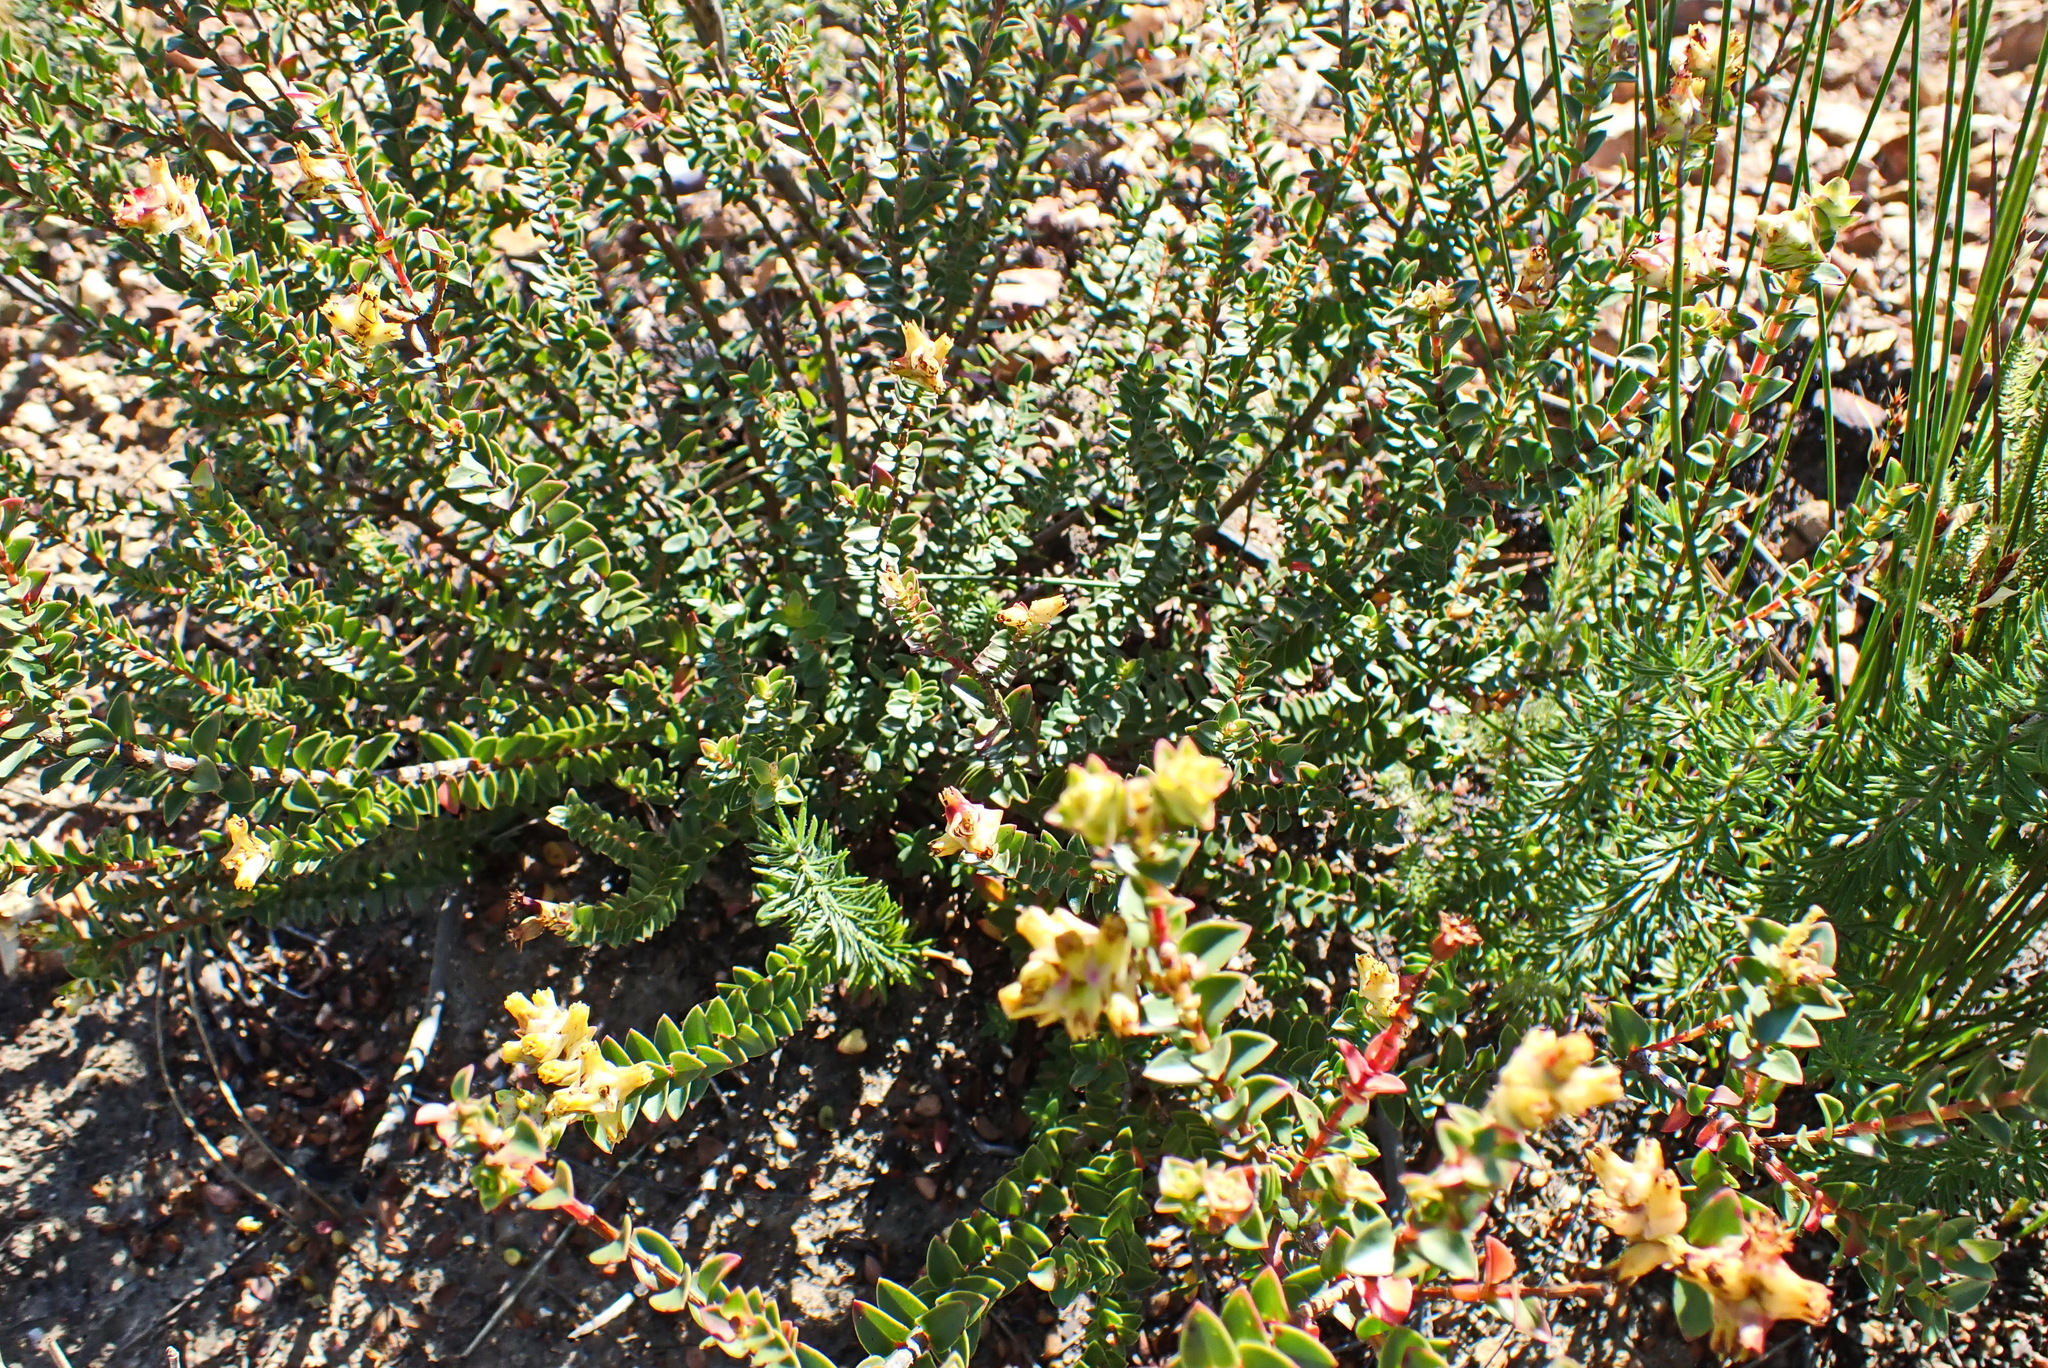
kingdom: Plantae
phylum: Tracheophyta
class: Magnoliopsida
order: Myrtales
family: Penaeaceae
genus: Penaea
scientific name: Penaea cneorum
